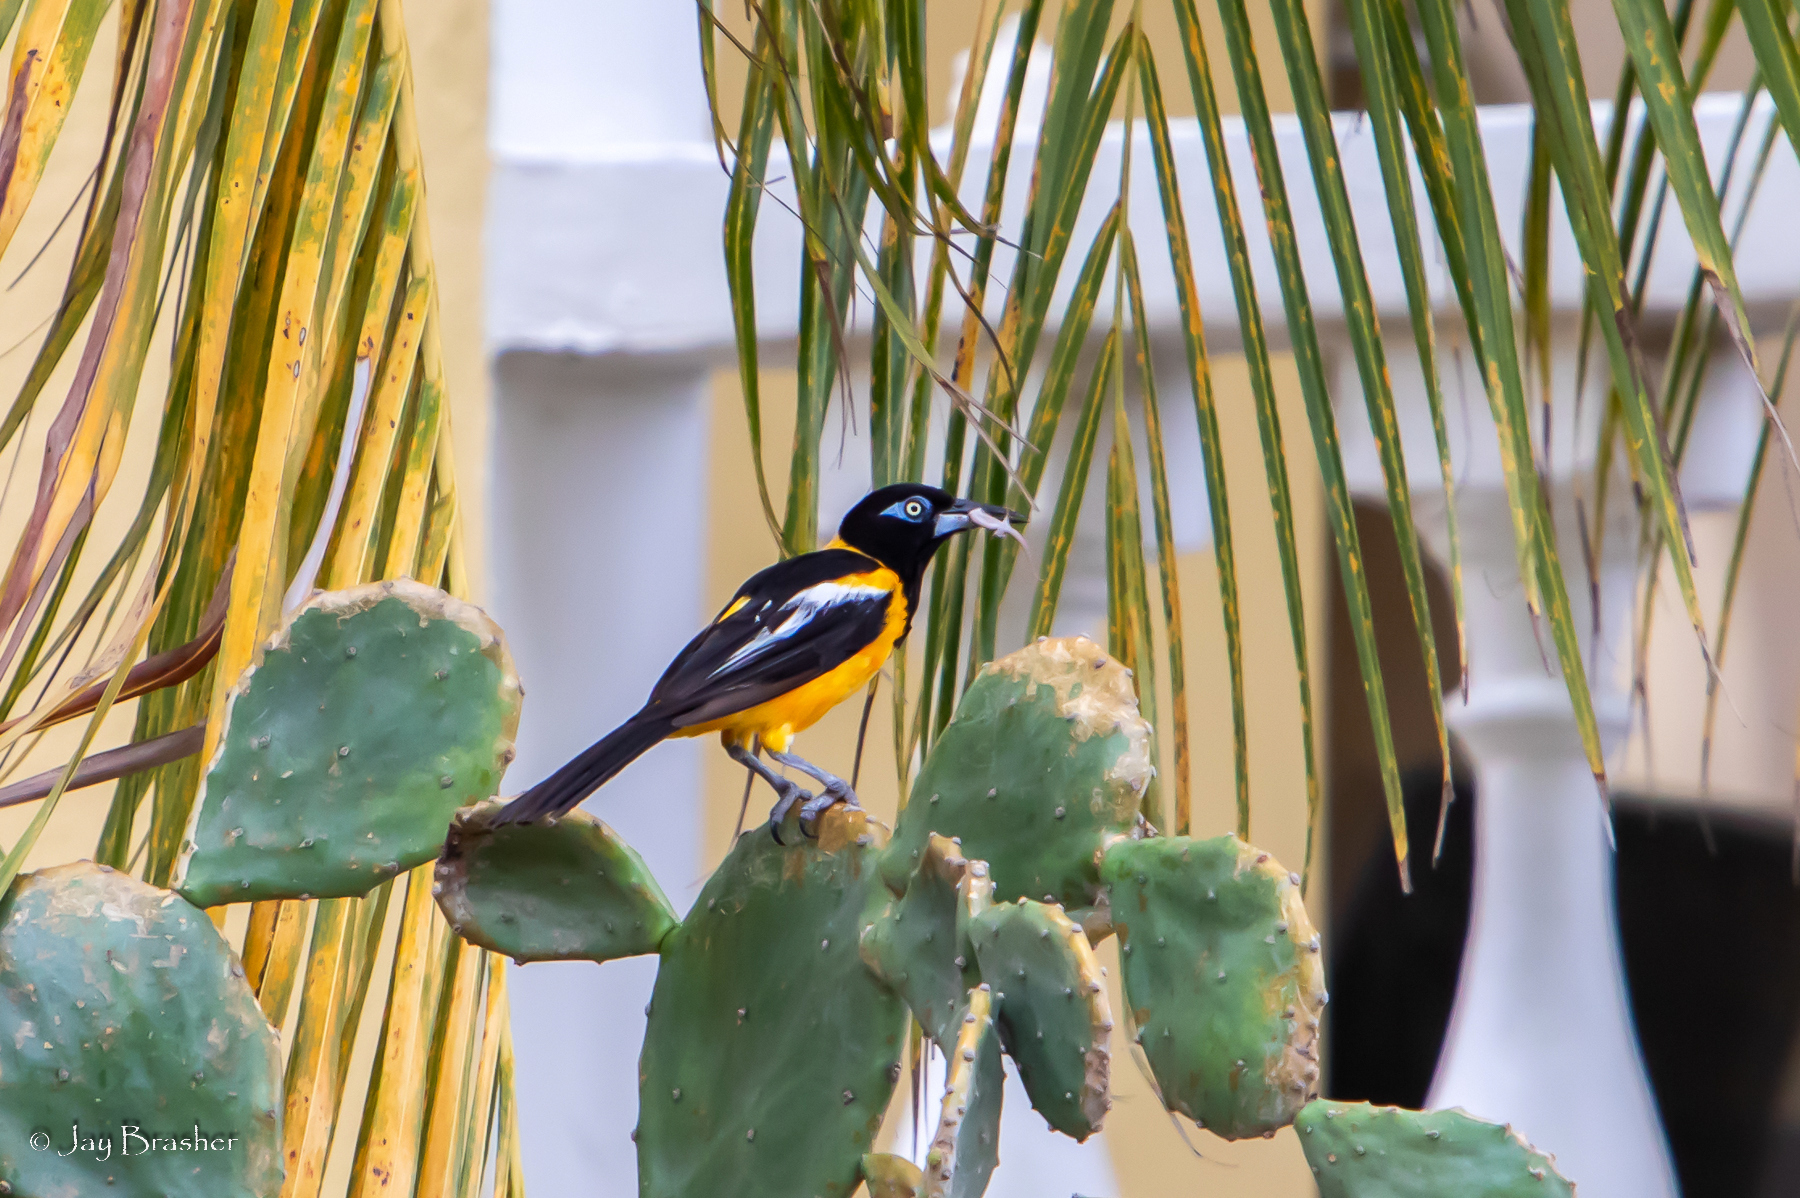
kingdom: Animalia
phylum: Chordata
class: Aves
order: Passeriformes
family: Icteridae
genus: Icterus
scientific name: Icterus icterus
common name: Venezuelan troupial
